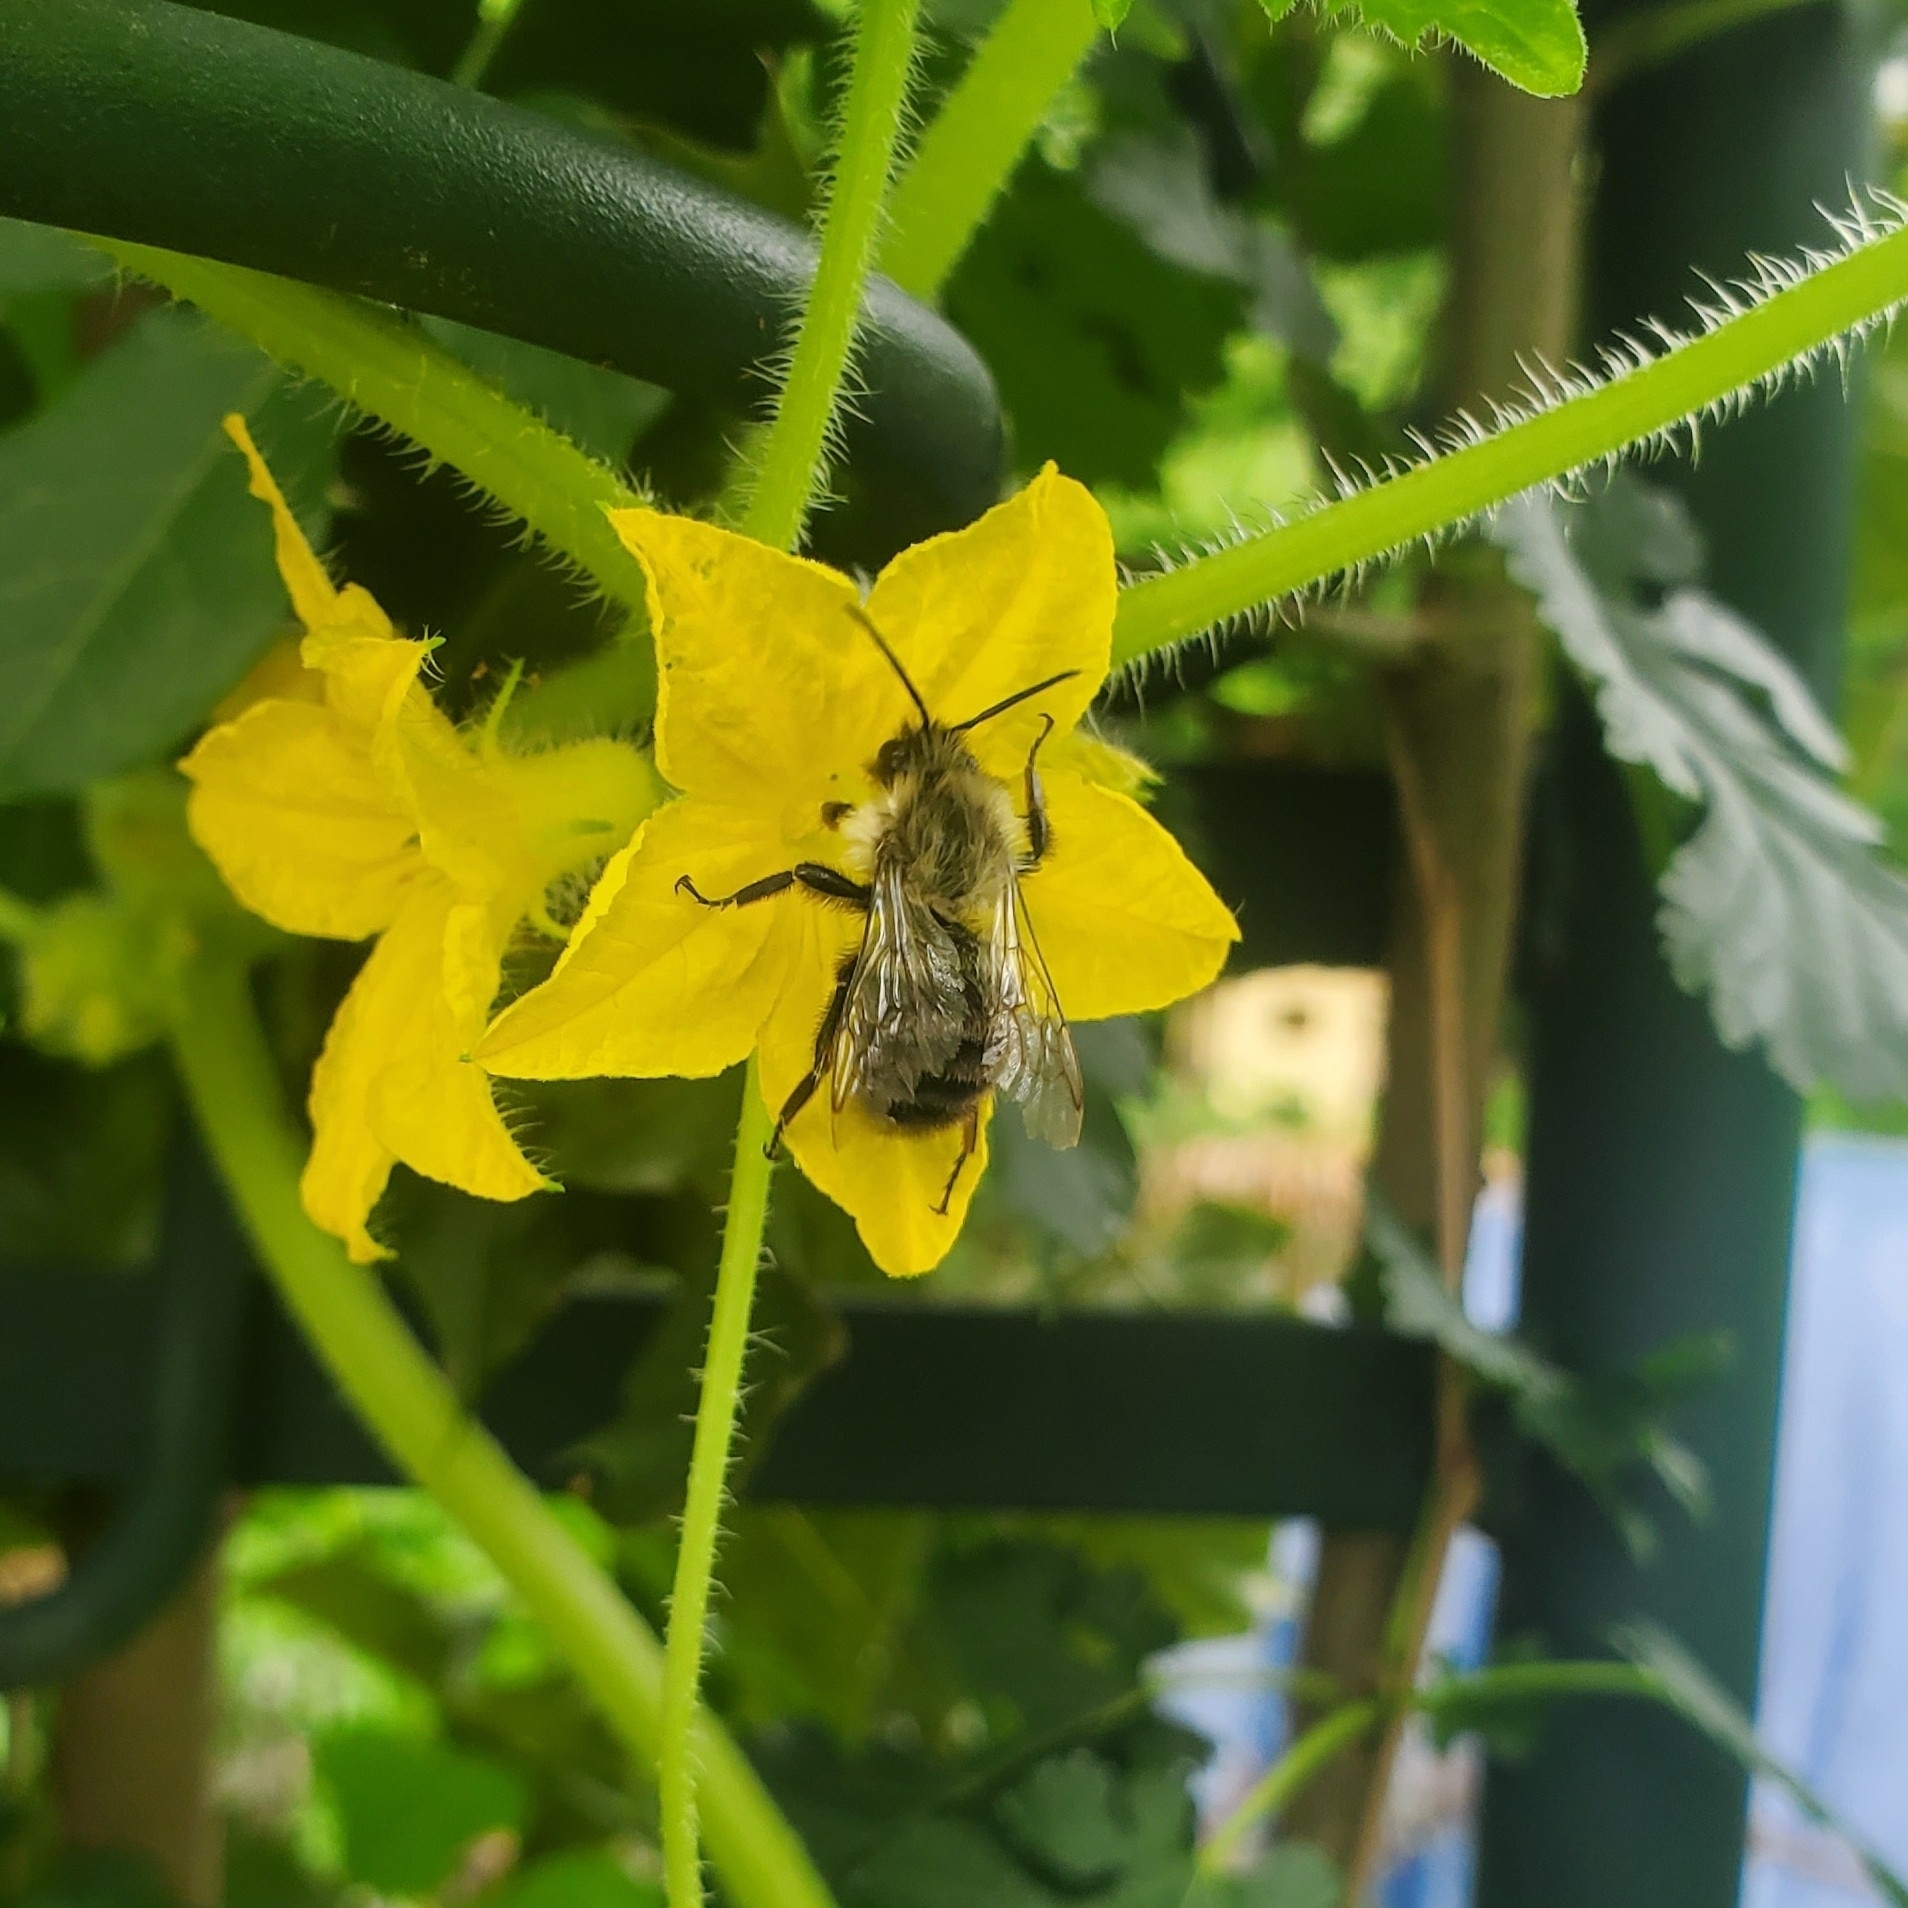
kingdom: Animalia
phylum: Arthropoda
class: Insecta
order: Hymenoptera
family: Apidae
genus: Bombus
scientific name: Bombus impatiens
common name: Common eastern bumble bee
